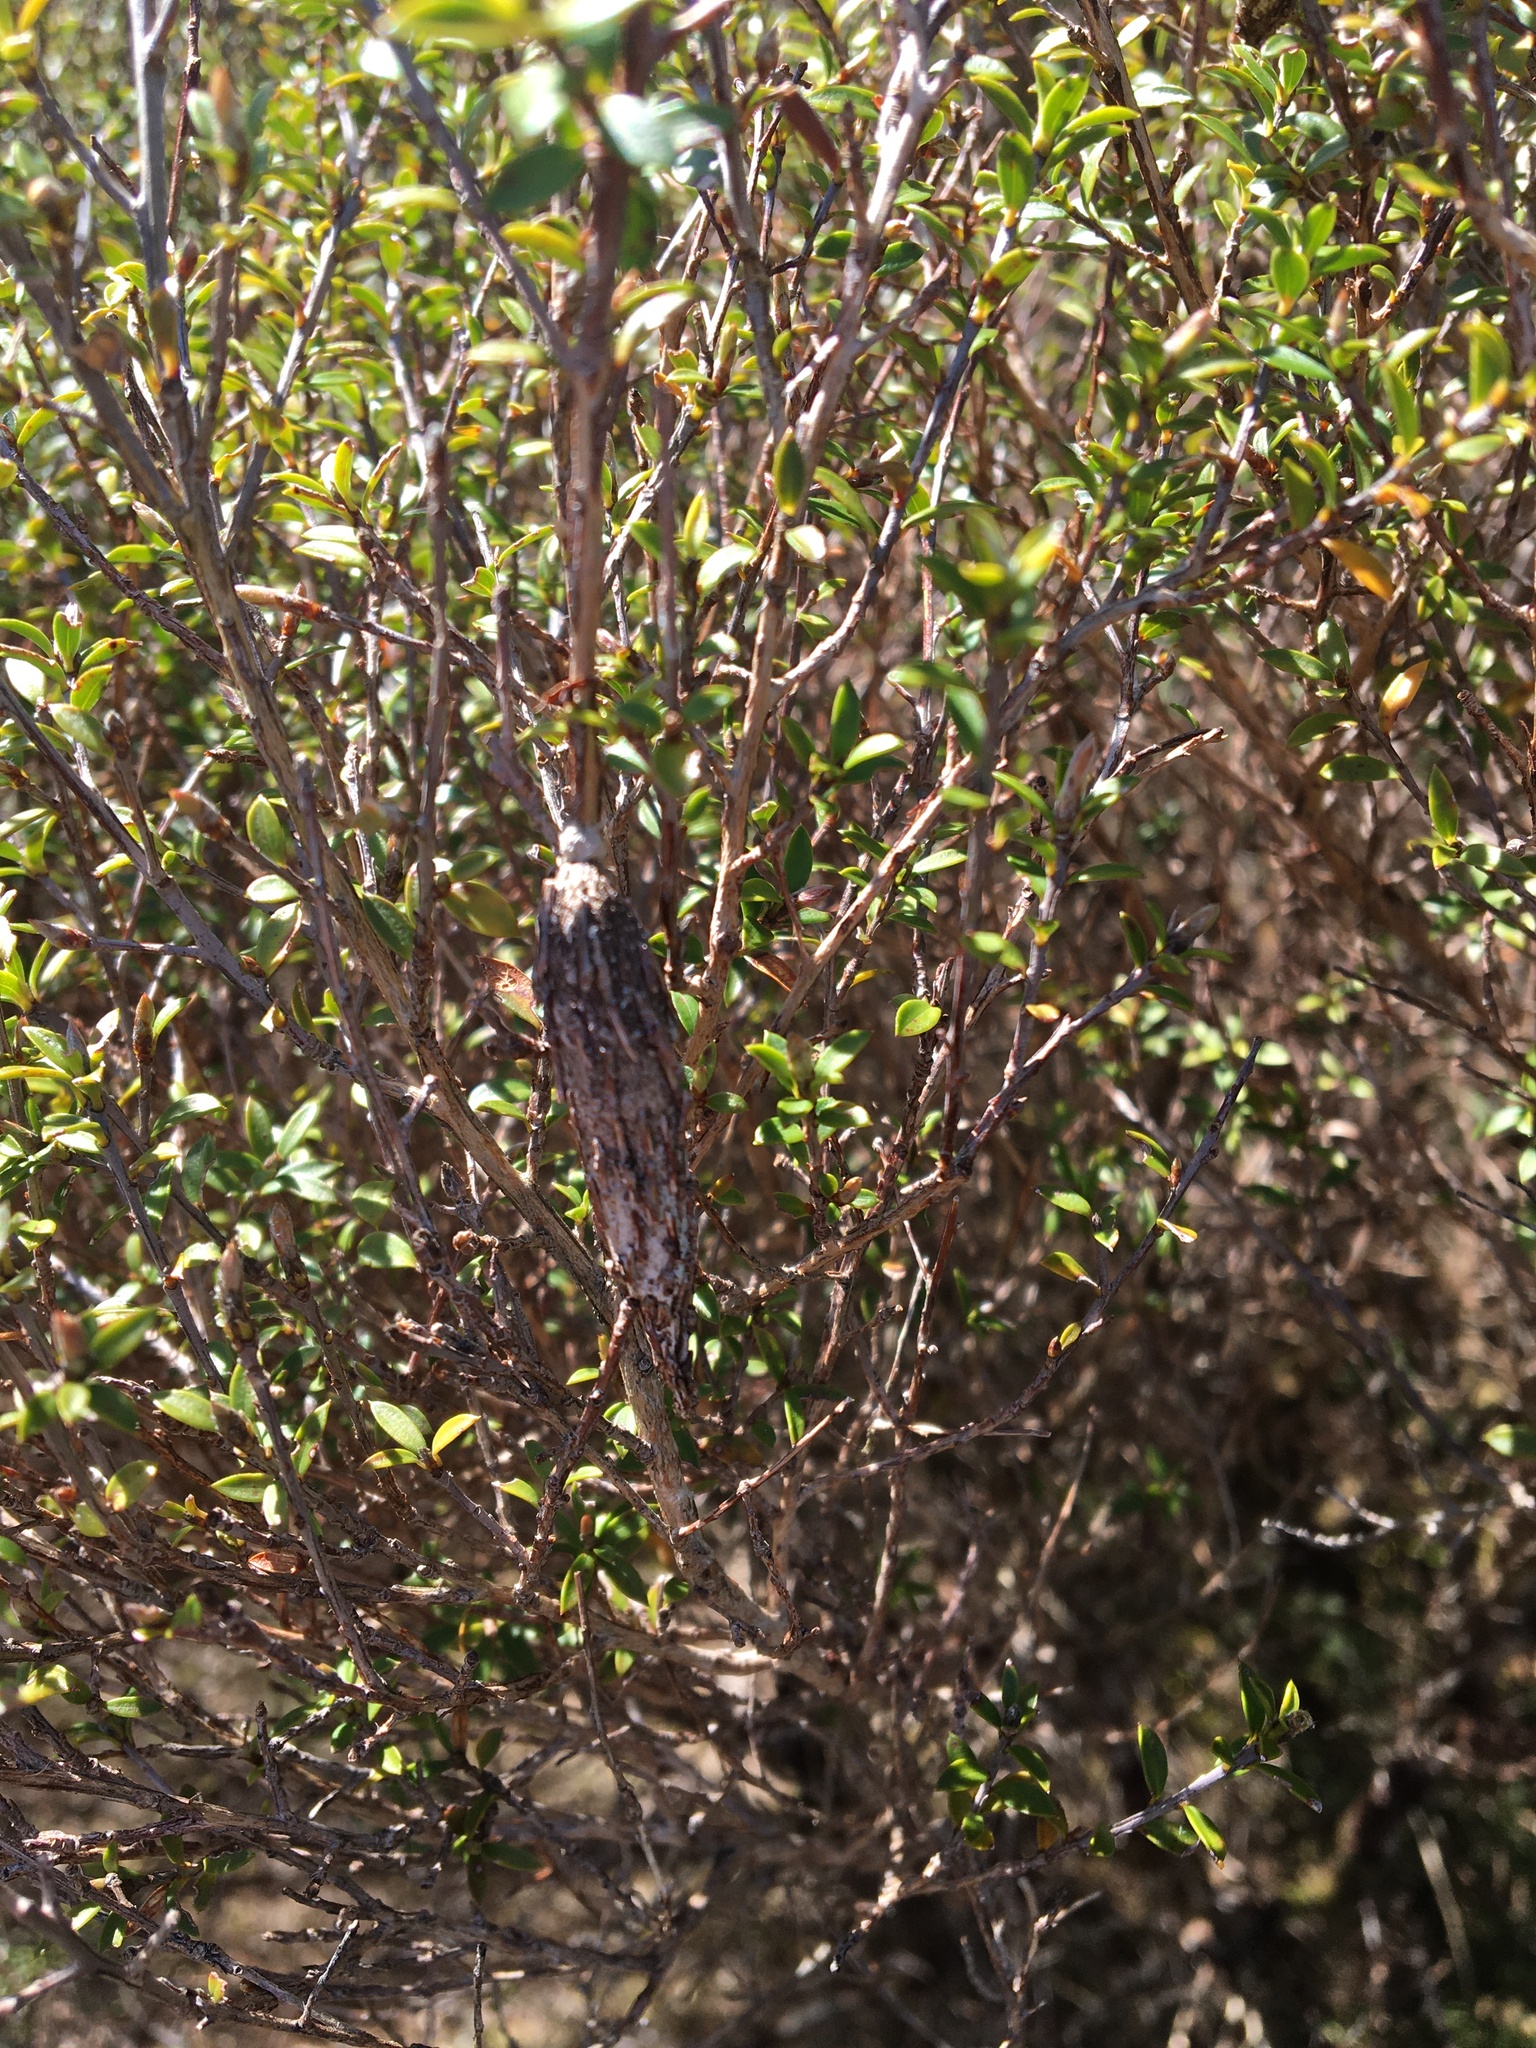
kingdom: Animalia
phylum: Arthropoda
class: Insecta
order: Lepidoptera
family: Psychidae
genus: Liothula
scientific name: Liothula omnivora
